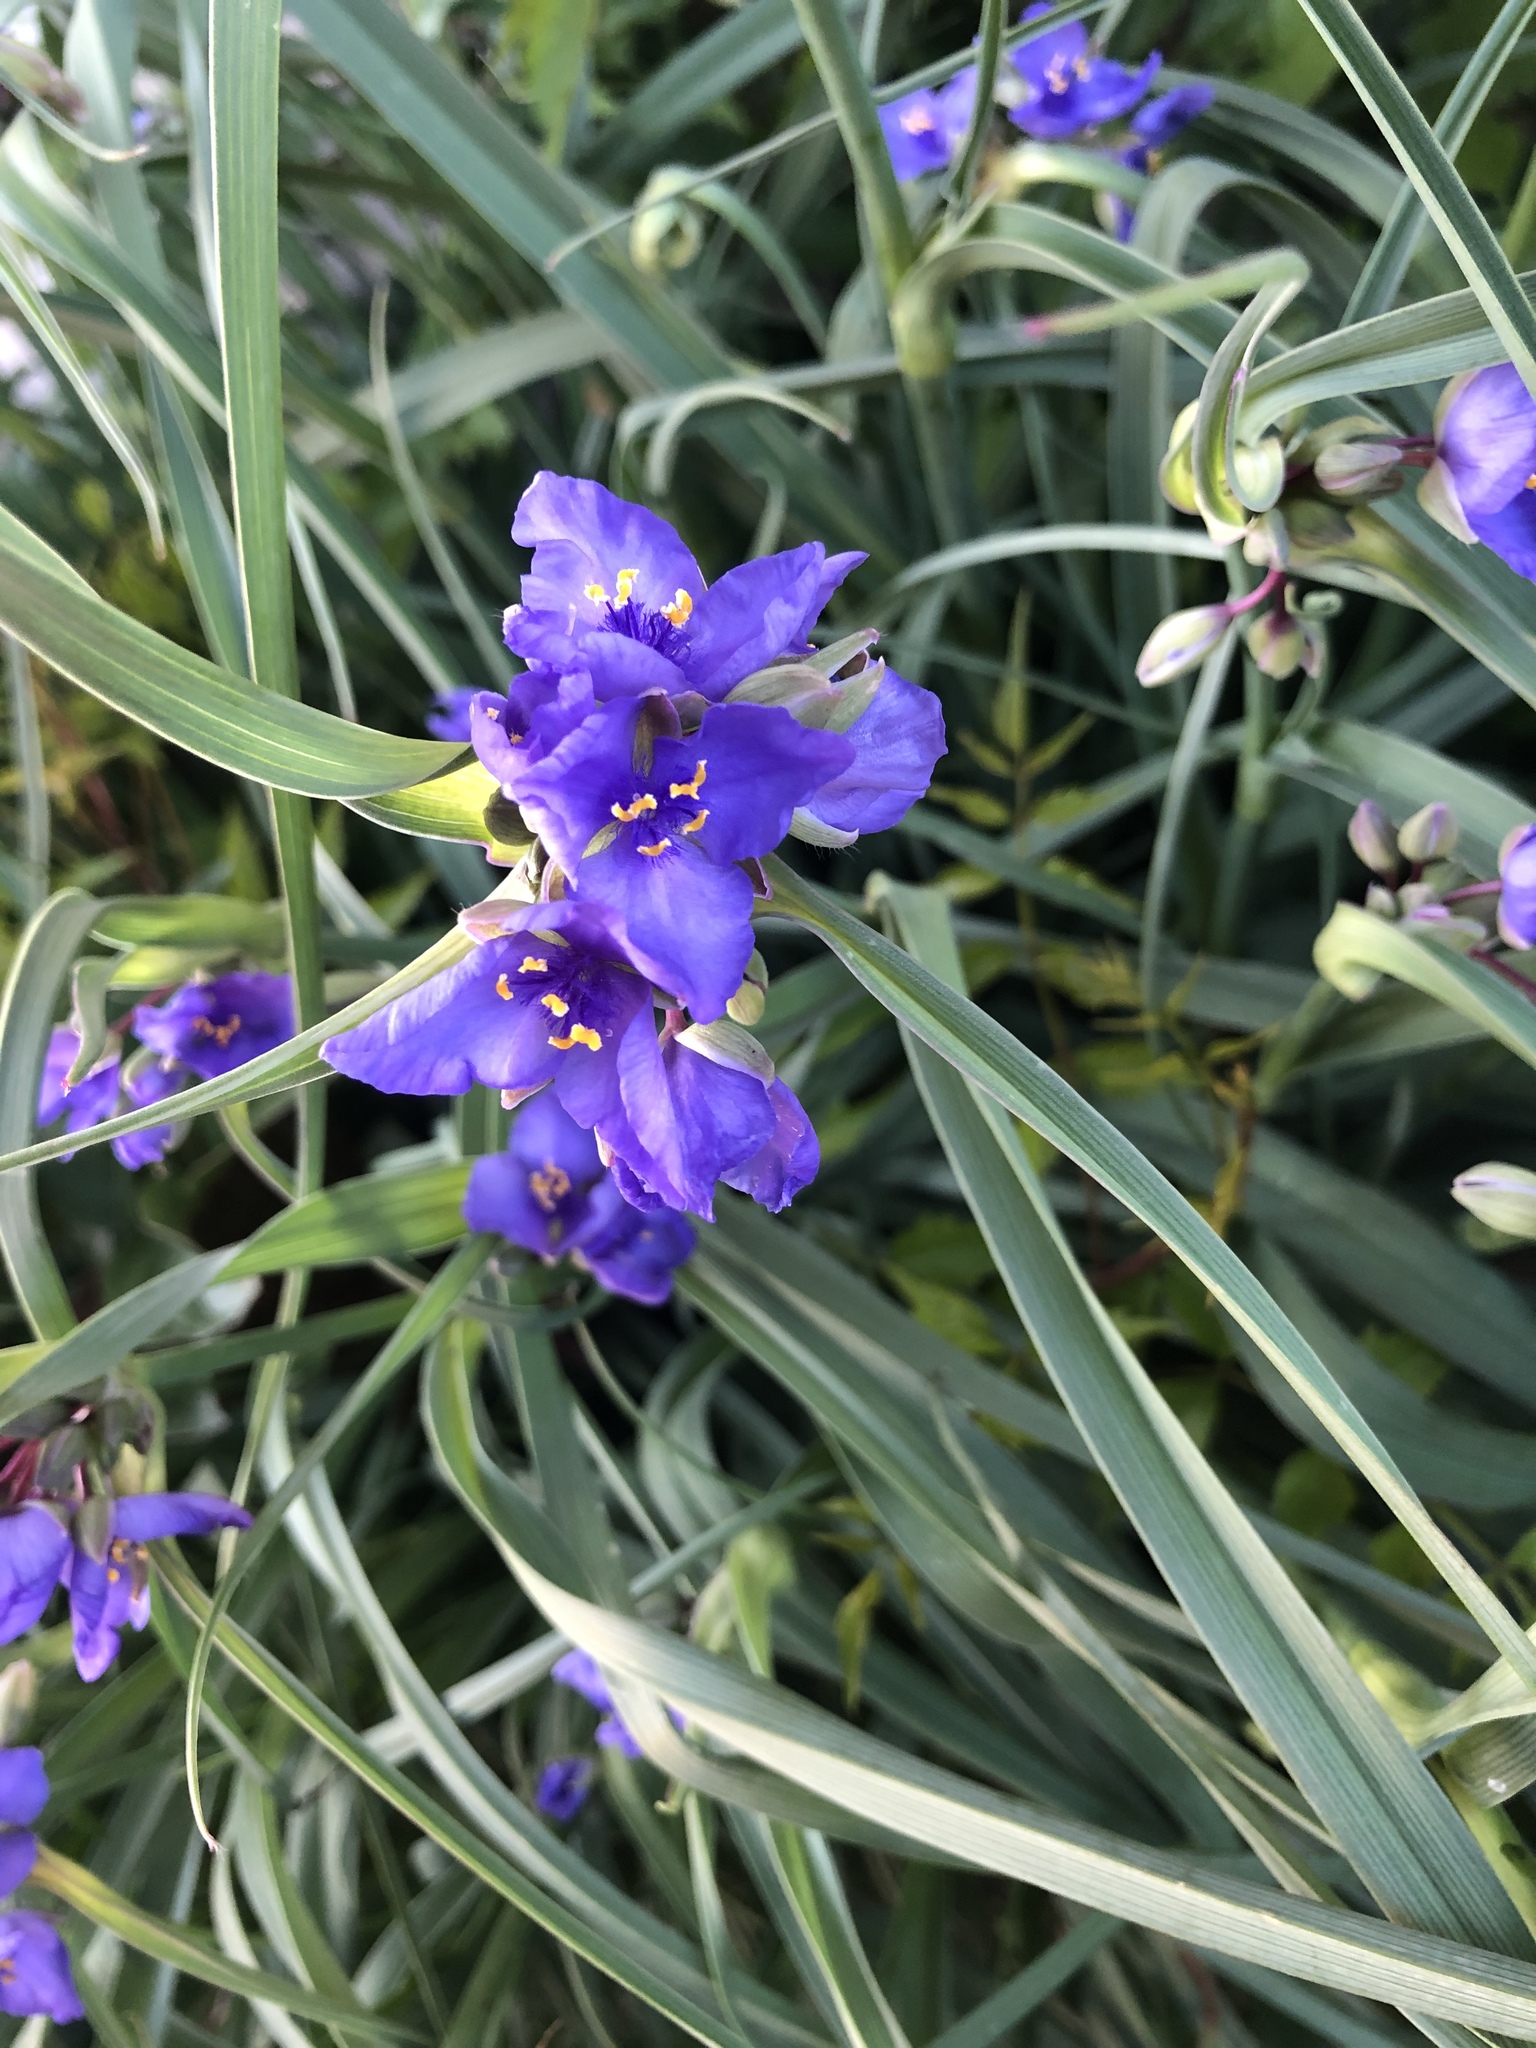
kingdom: Plantae
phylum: Tracheophyta
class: Liliopsida
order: Commelinales
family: Commelinaceae
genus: Tradescantia
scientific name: Tradescantia ohiensis
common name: Ohio spiderwort
